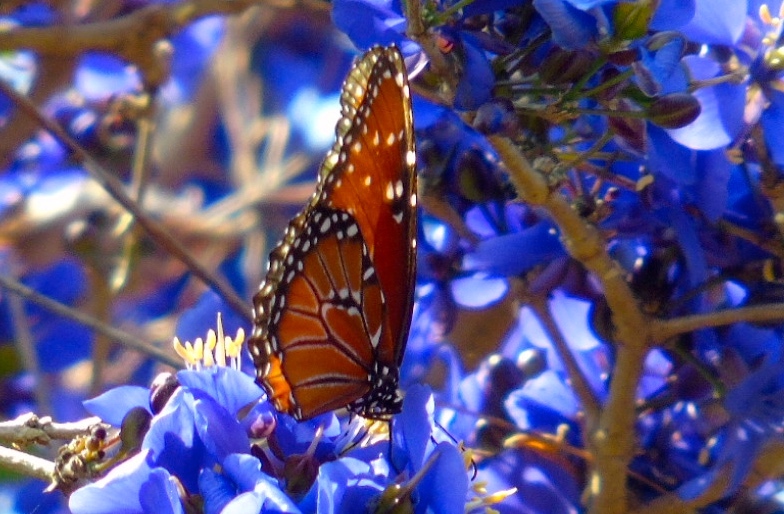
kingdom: Animalia
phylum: Arthropoda
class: Insecta
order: Lepidoptera
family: Nymphalidae
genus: Danaus
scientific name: Danaus gilippus
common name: Queen
